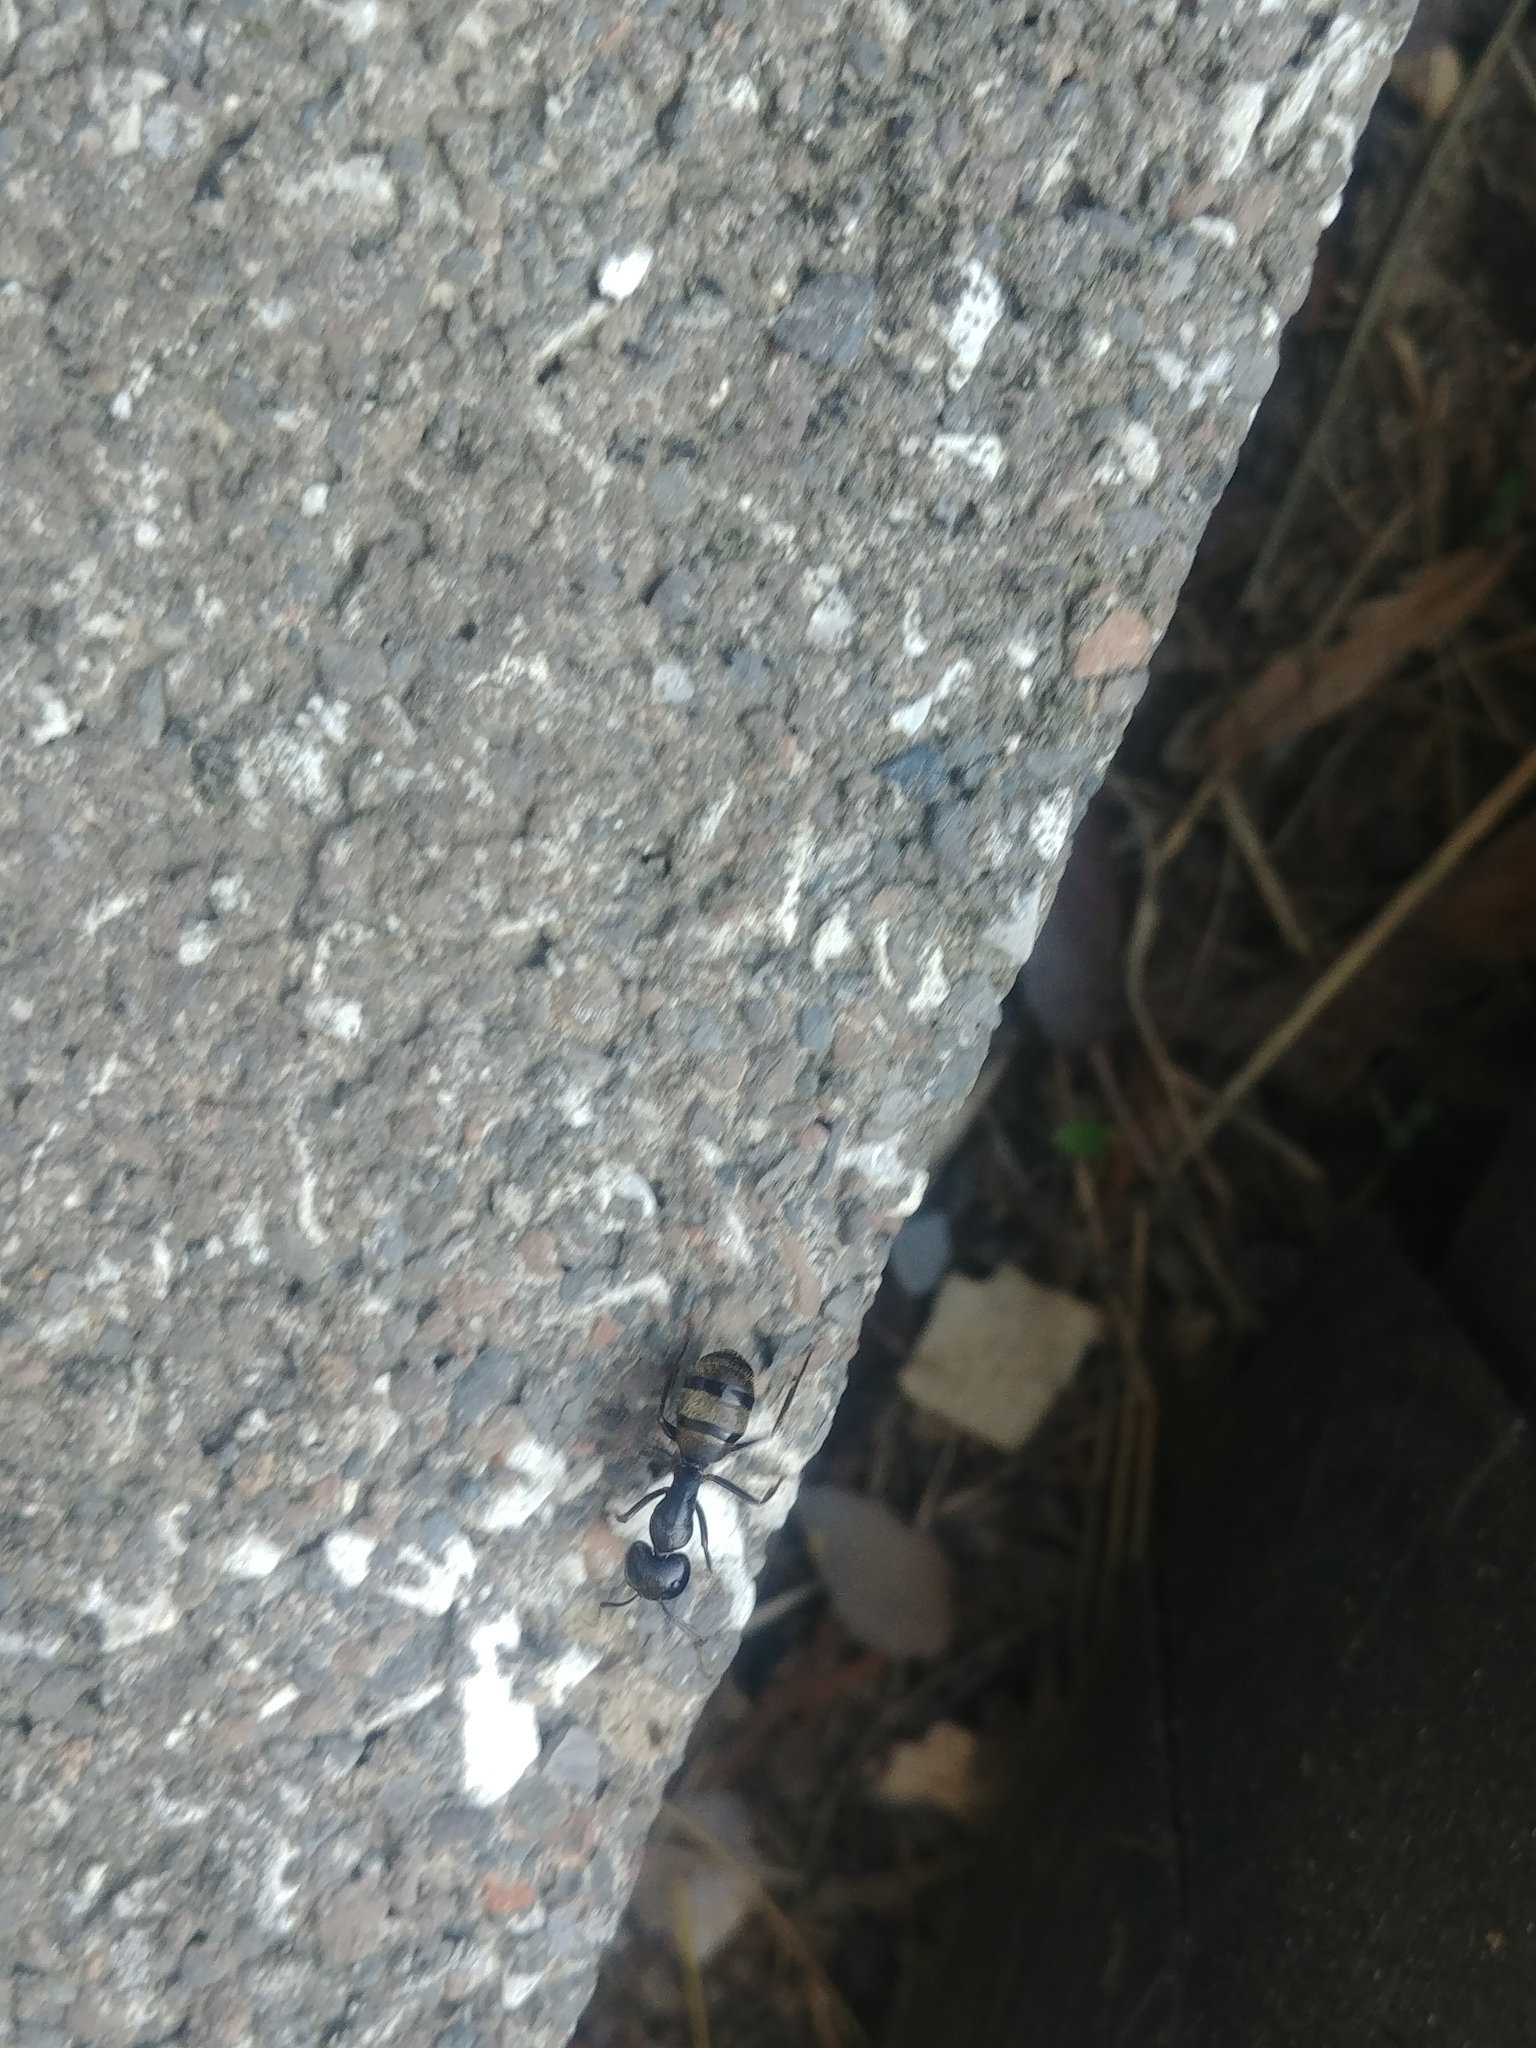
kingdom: Animalia
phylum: Arthropoda
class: Insecta
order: Hymenoptera
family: Formicidae
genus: Camponotus
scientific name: Camponotus pennsylvanicus
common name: Black carpenter ant
